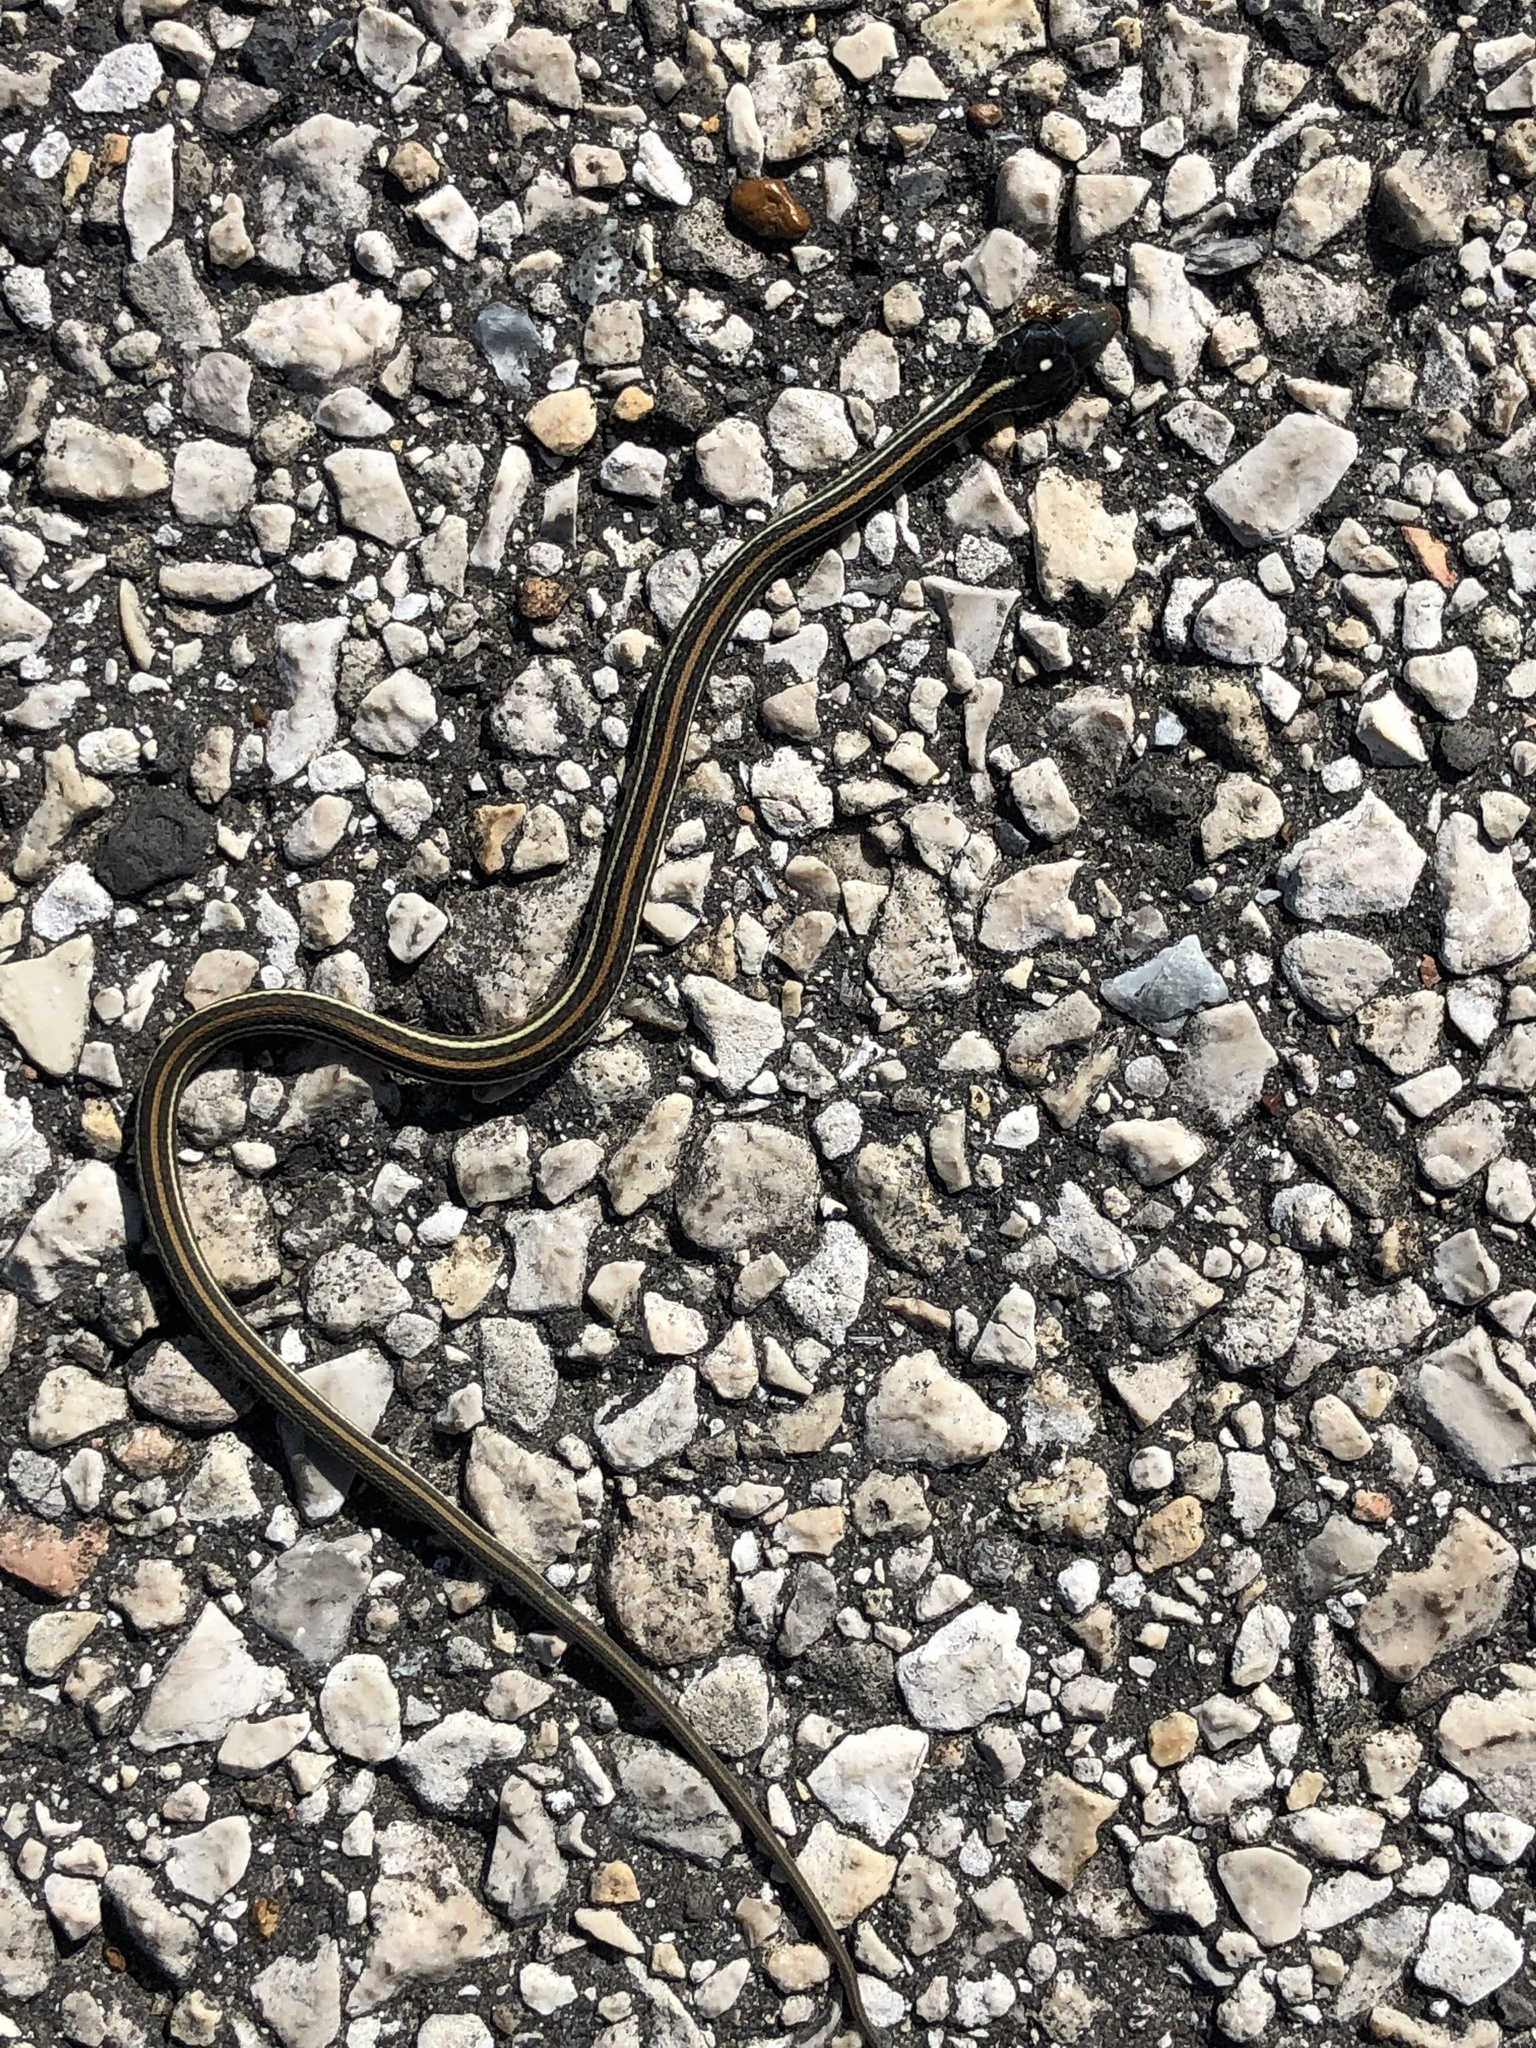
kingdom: Animalia
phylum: Chordata
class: Squamata
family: Colubridae
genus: Thamnophis
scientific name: Thamnophis proximus
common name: Western ribbon snake
